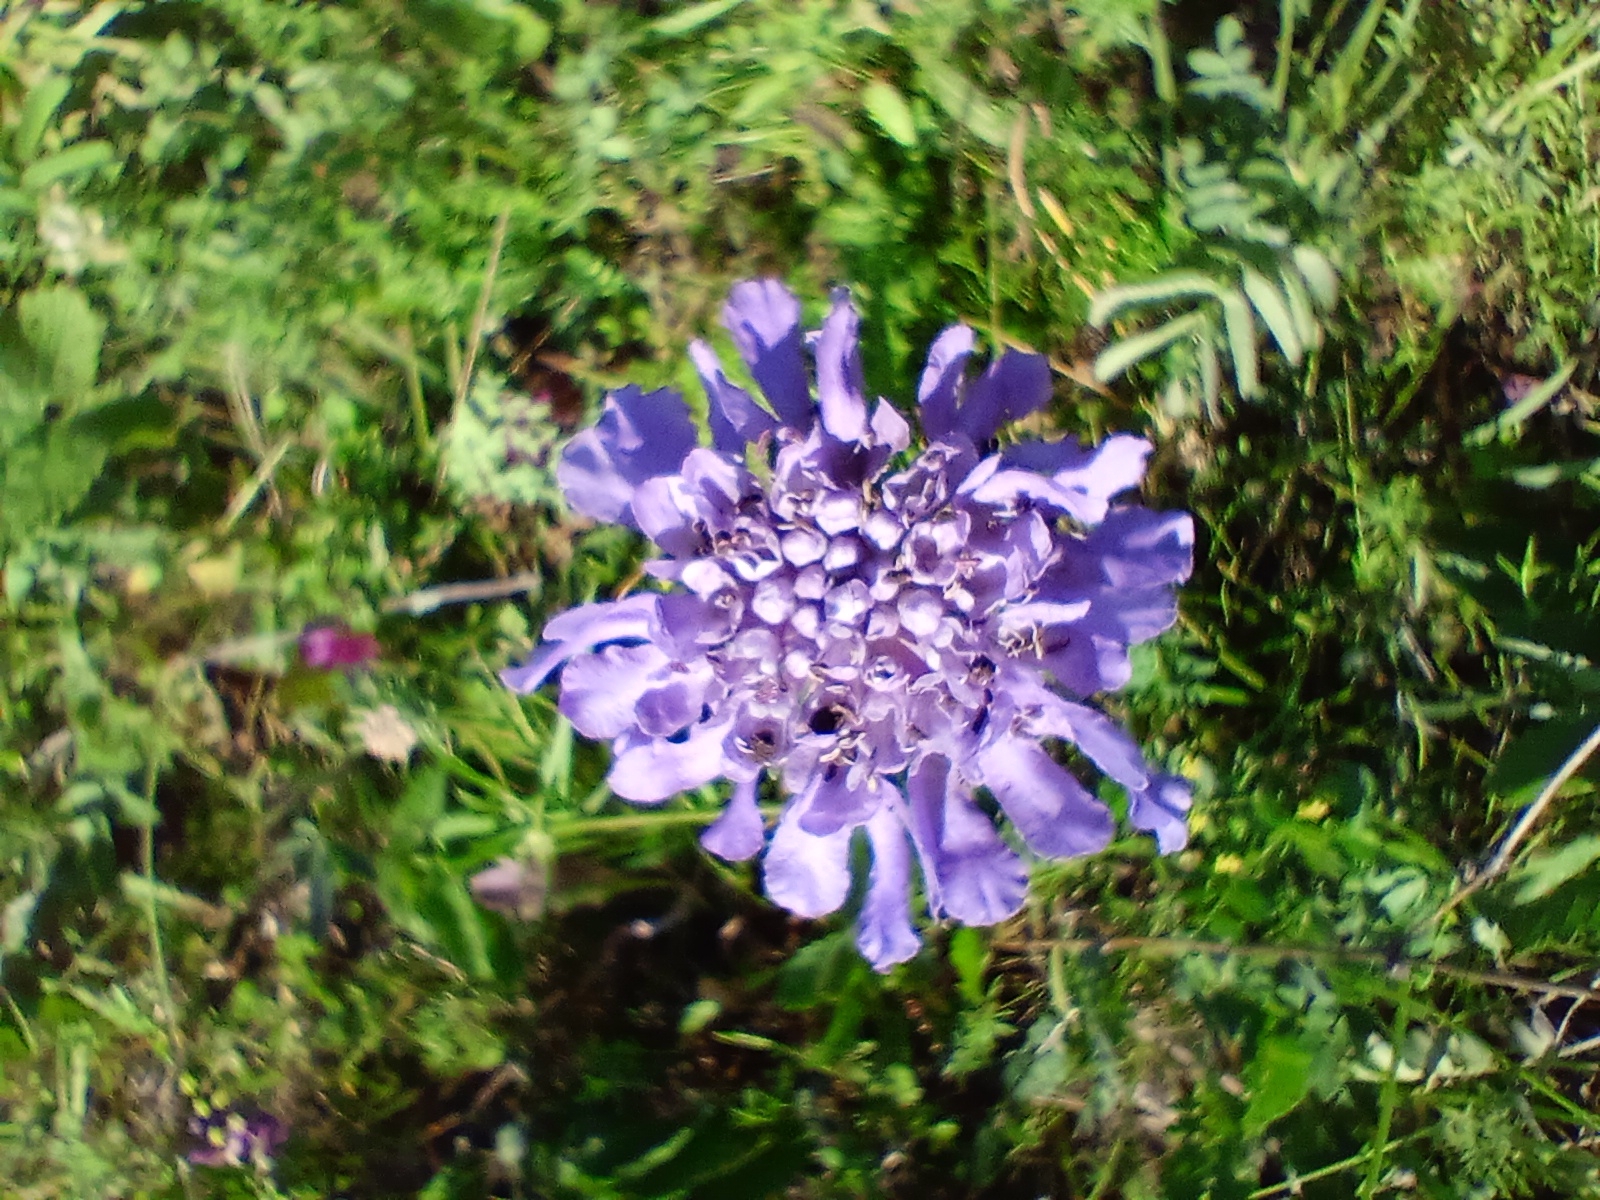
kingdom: Plantae
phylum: Tracheophyta
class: Magnoliopsida
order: Dipsacales
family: Caprifoliaceae
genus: Scabiosa
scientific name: Scabiosa comosa
